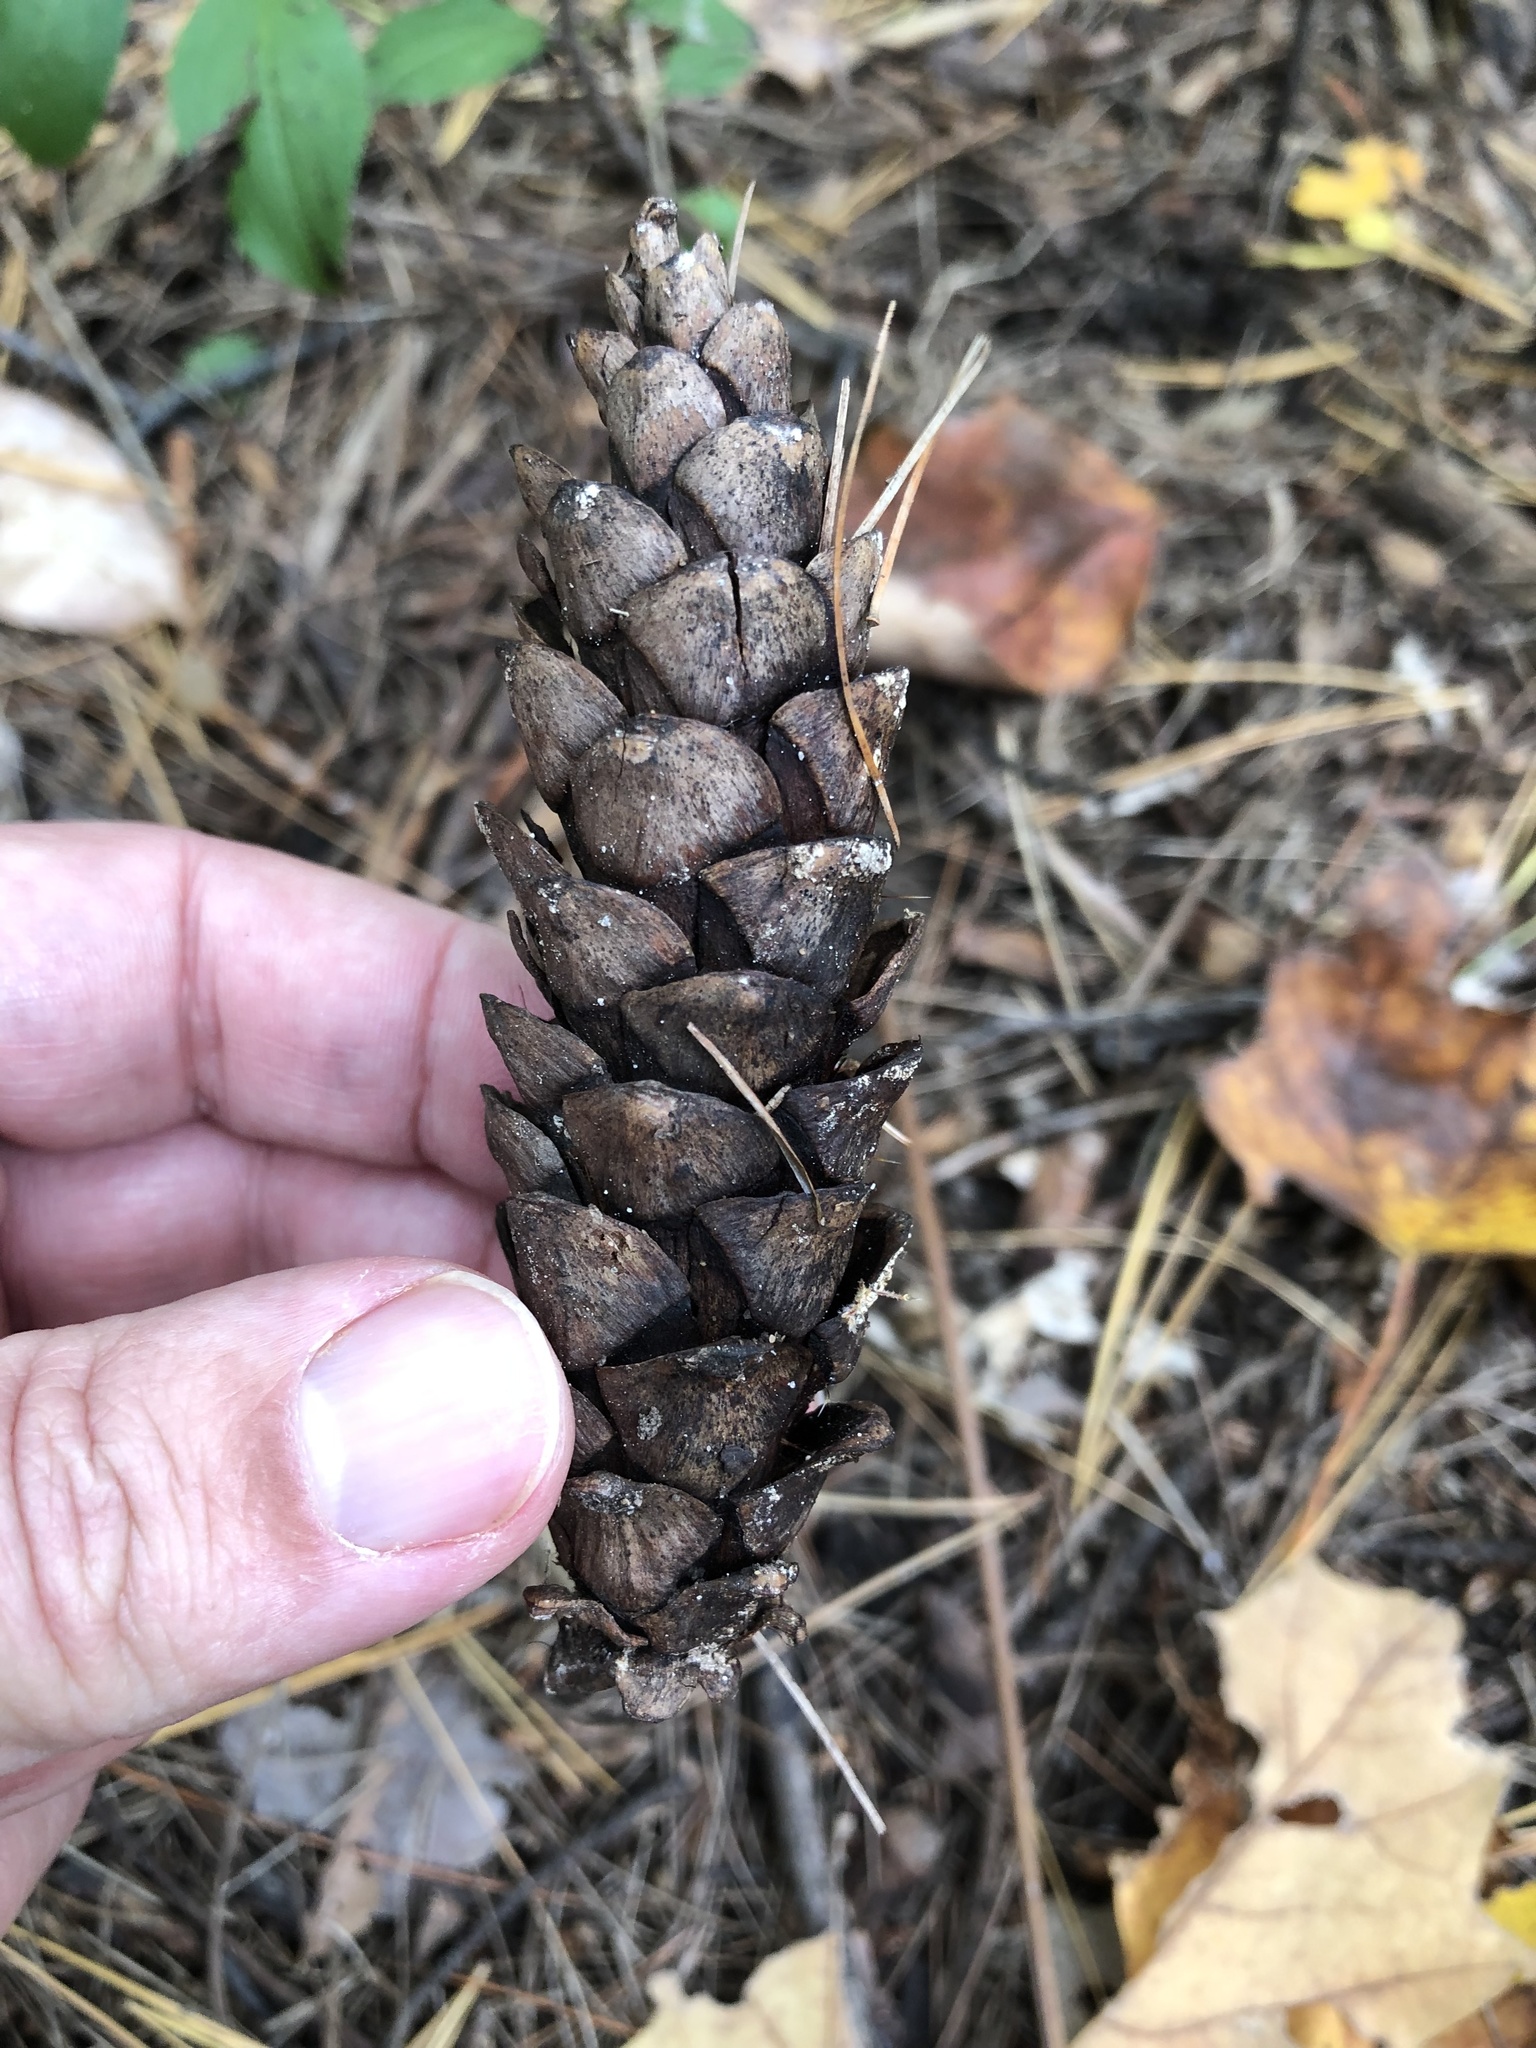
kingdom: Plantae
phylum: Tracheophyta
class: Pinopsida
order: Pinales
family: Pinaceae
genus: Pinus
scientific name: Pinus strobus
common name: Weymouth pine
